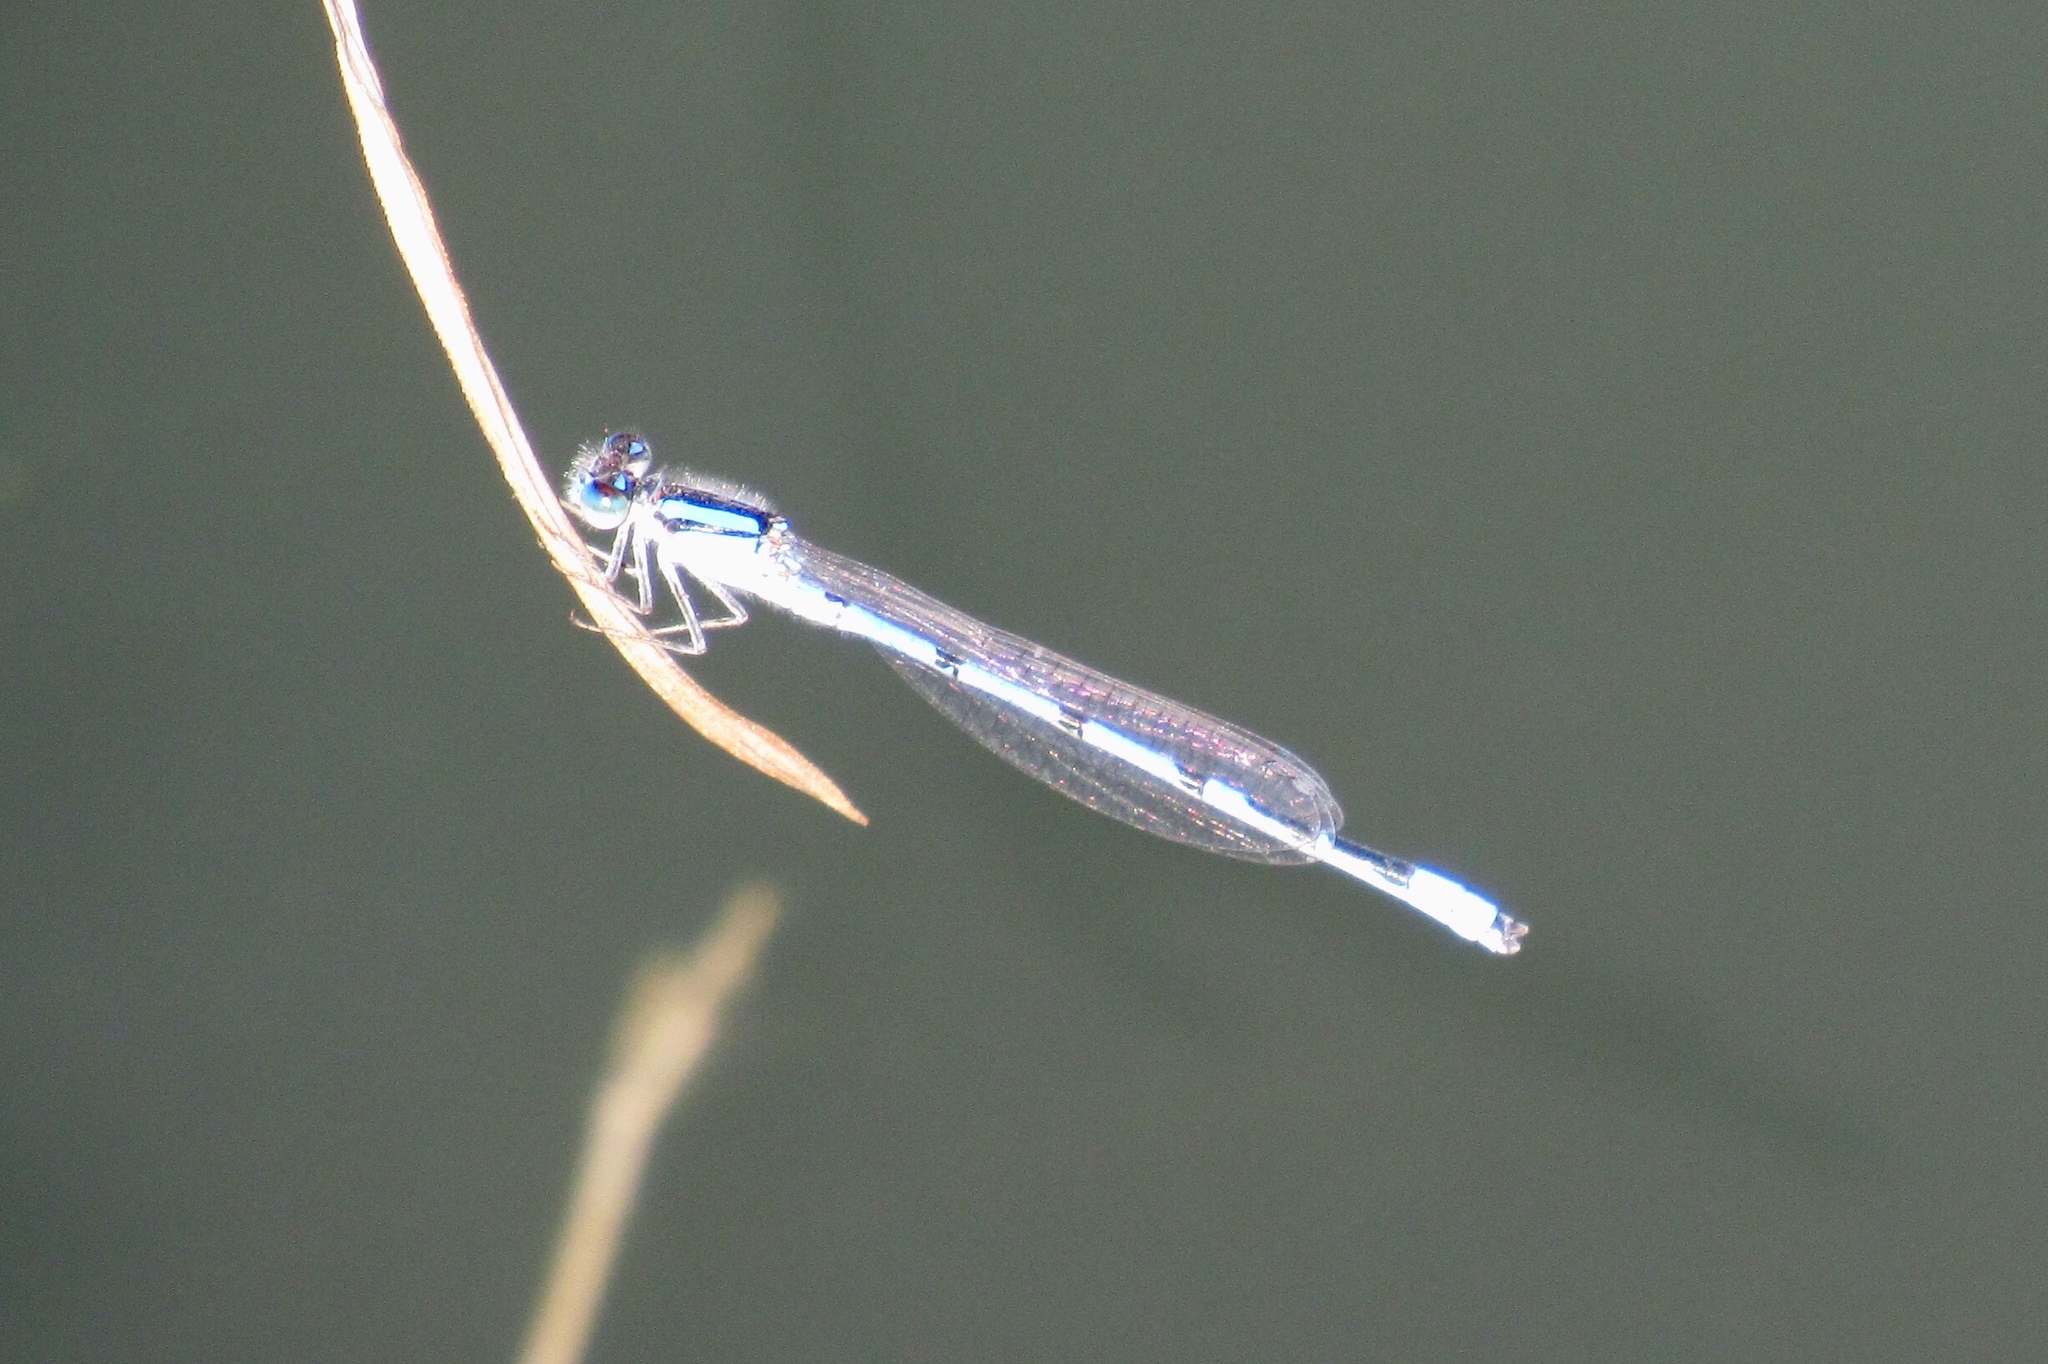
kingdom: Animalia
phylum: Arthropoda
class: Insecta
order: Odonata
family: Coenagrionidae
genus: Enallagma
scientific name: Enallagma civile
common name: Damselfly
